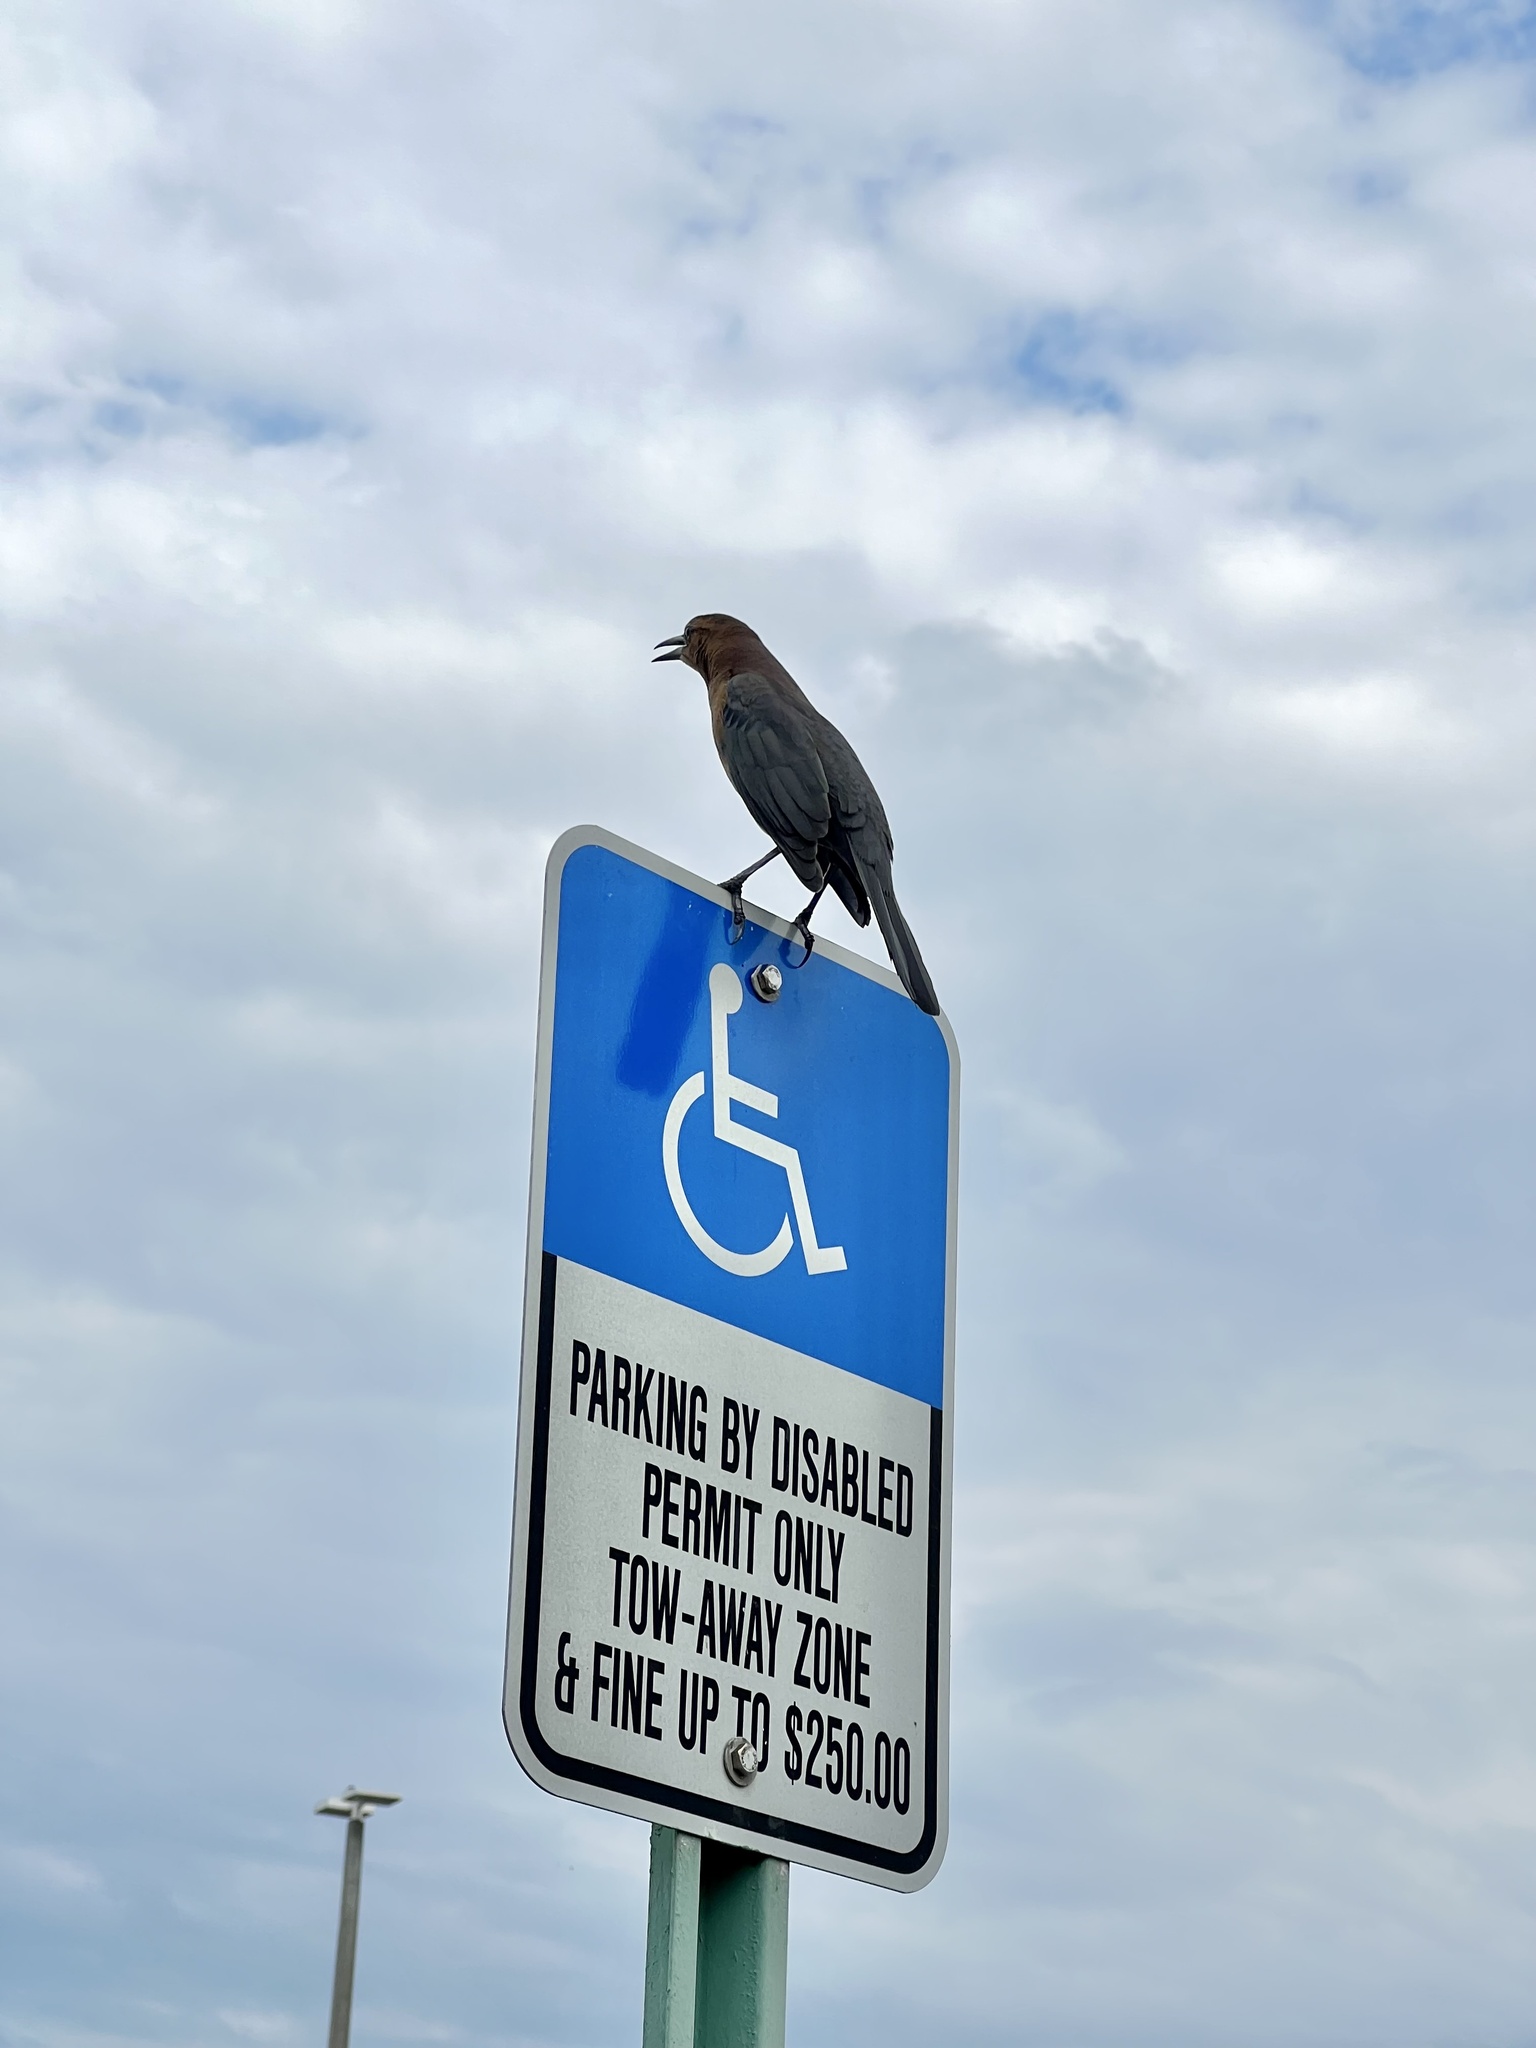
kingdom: Animalia
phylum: Chordata
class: Aves
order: Passeriformes
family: Icteridae
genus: Quiscalus
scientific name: Quiscalus major
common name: Boat-tailed grackle
